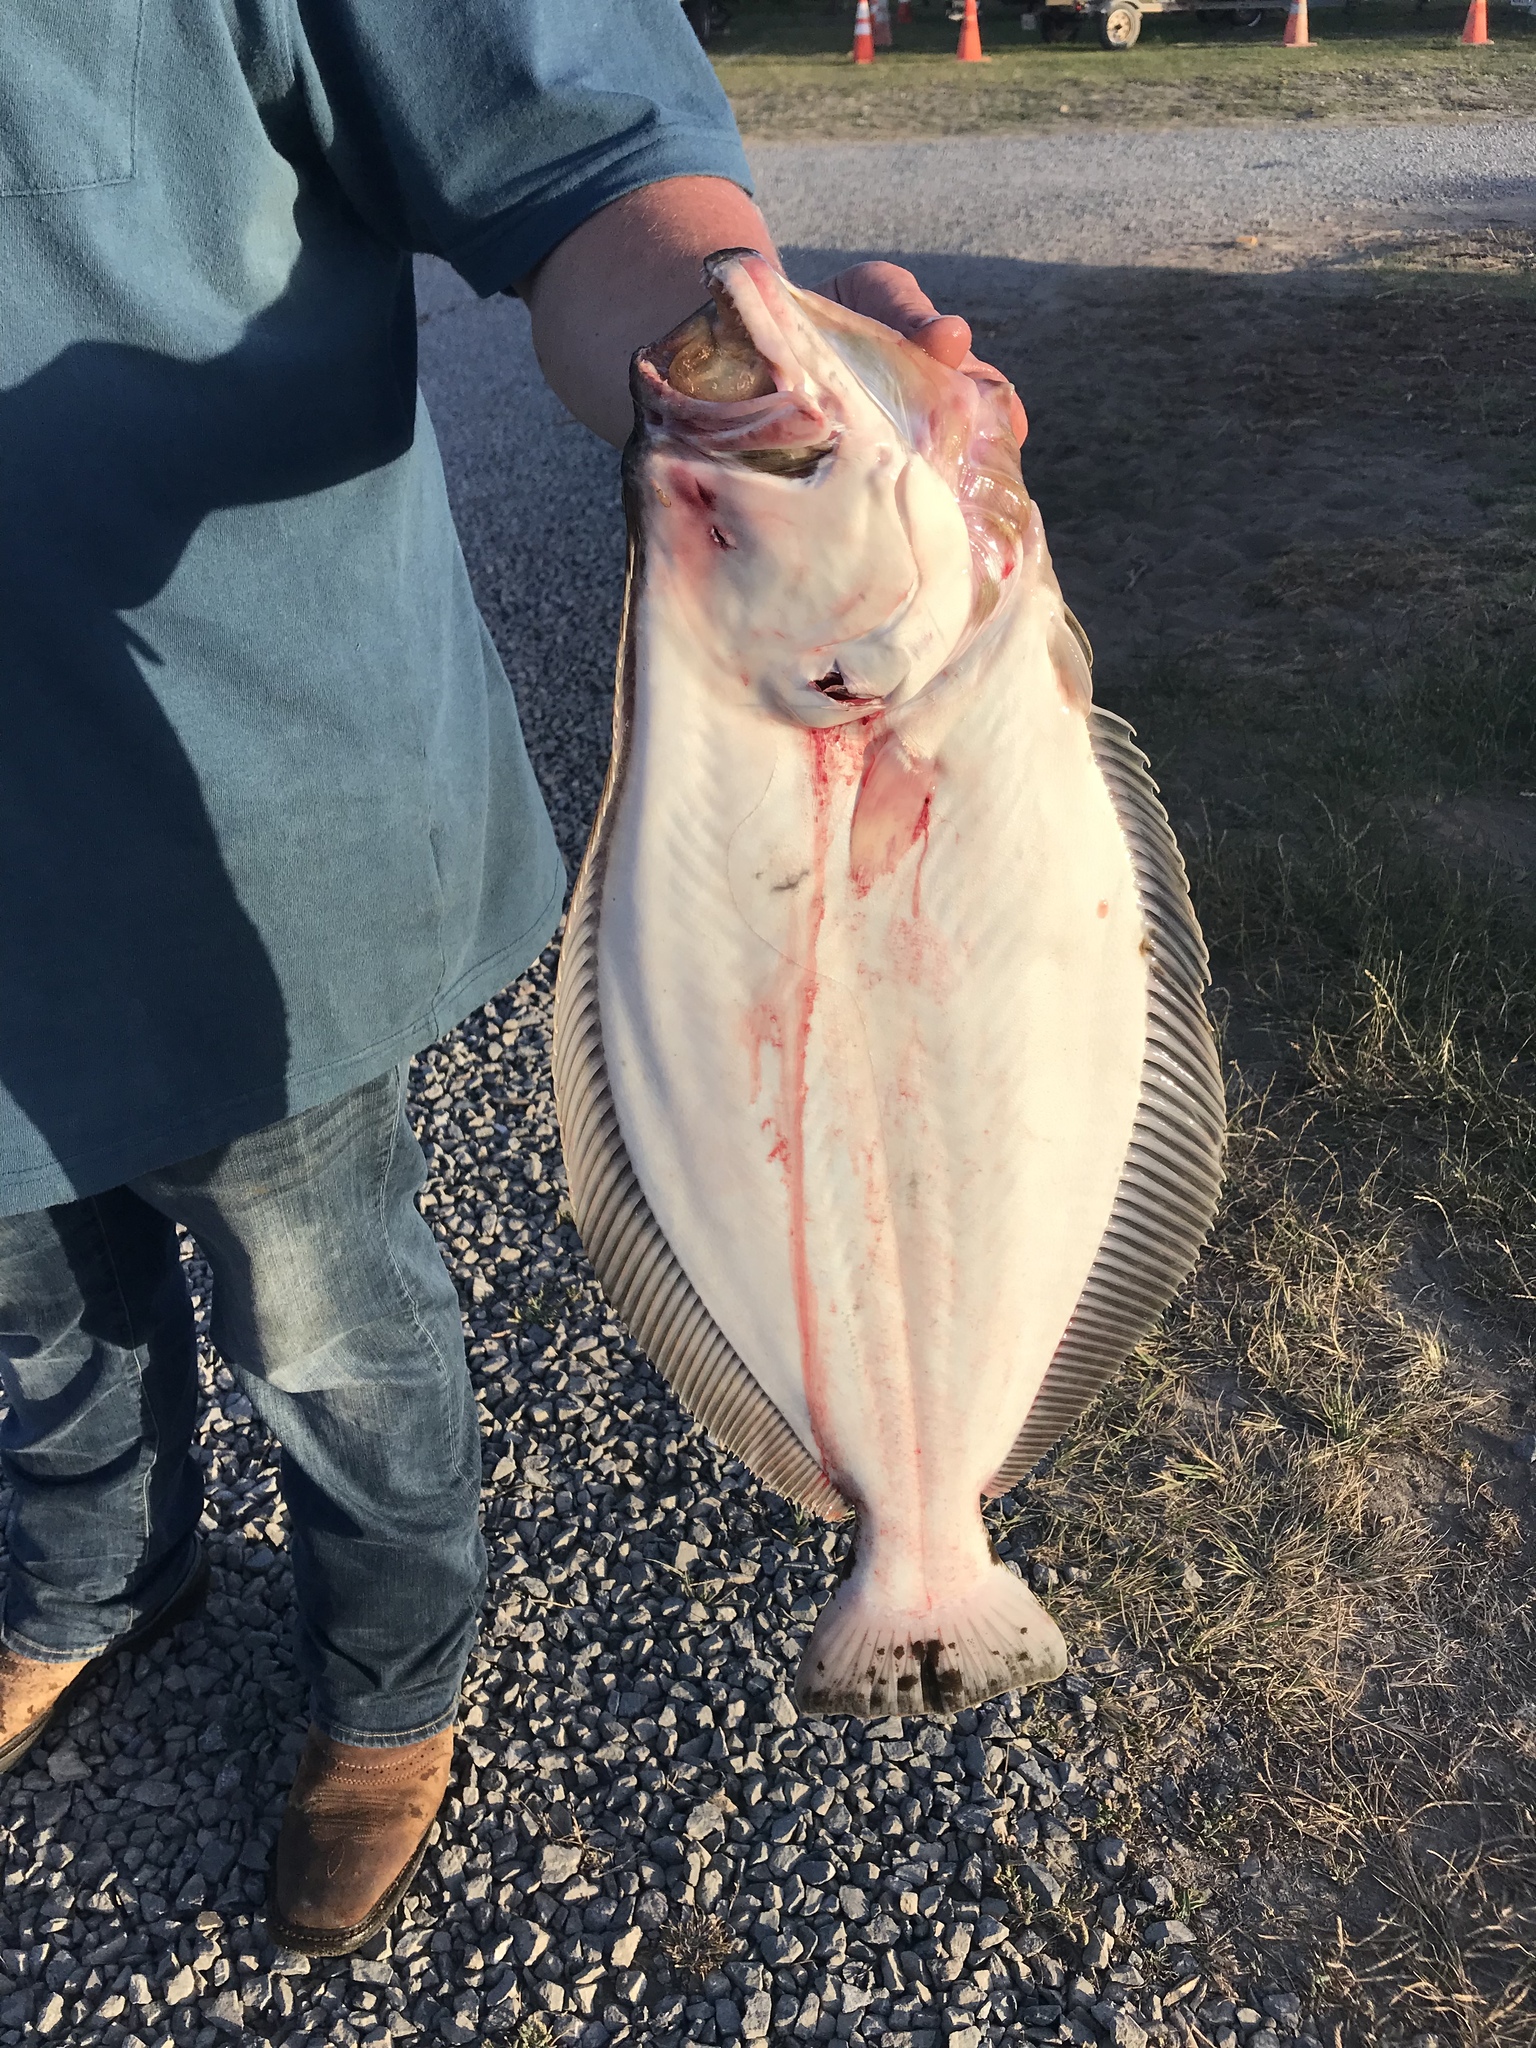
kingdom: Animalia
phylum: Chordata
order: Pleuronectiformes
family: Paralichthyidae
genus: Paralichthys
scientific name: Paralichthys californicus
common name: California halibut
